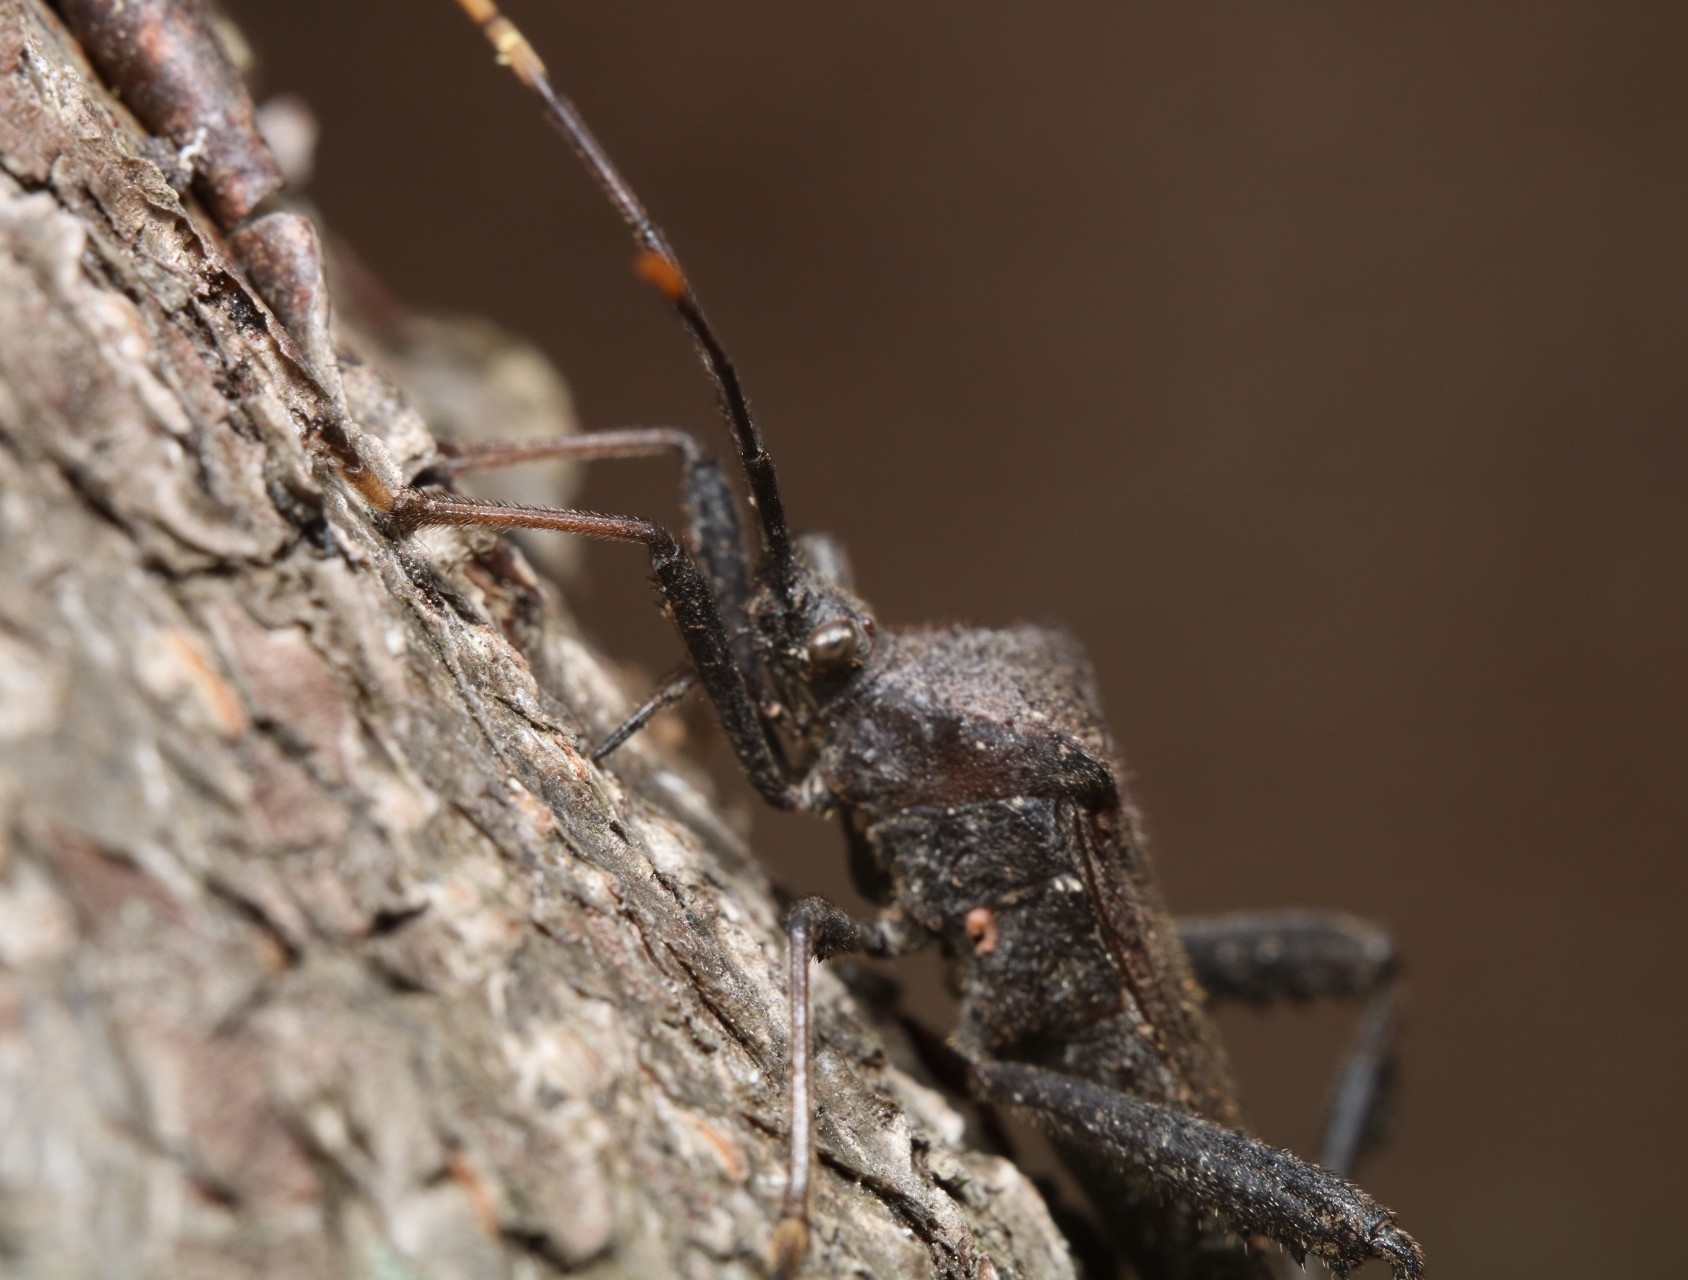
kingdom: Animalia
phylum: Arthropoda
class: Insecta
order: Hemiptera
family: Coreidae
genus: Acanthocephala
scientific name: Acanthocephala terminalis
